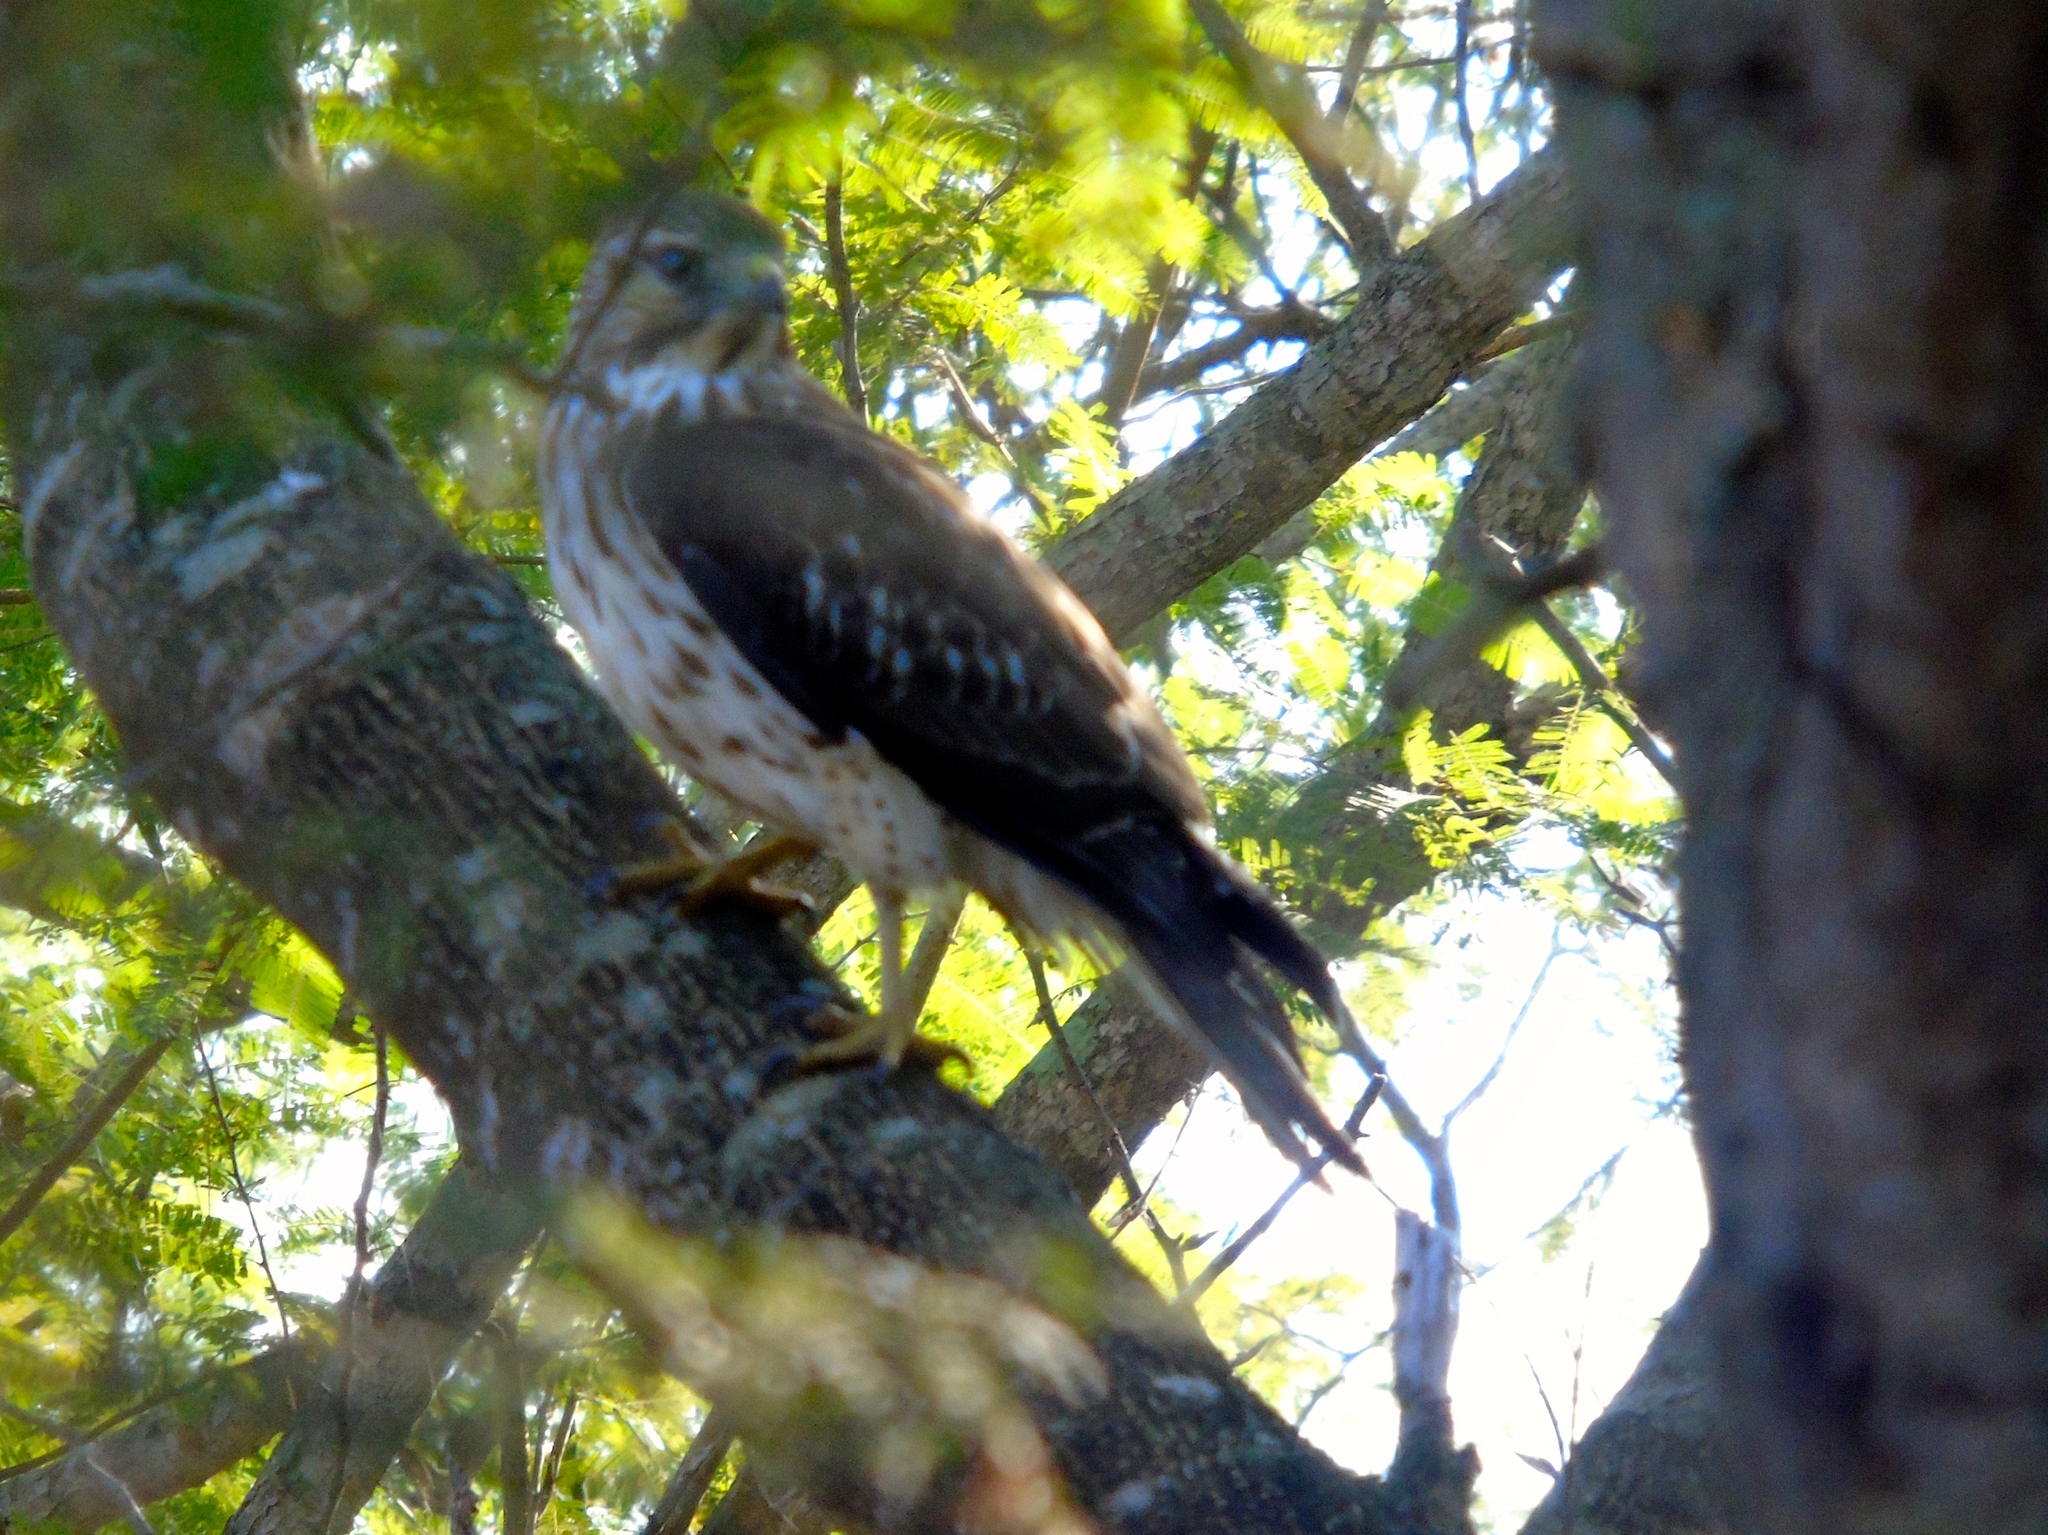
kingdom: Animalia
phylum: Chordata
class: Aves
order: Accipitriformes
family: Accipitridae
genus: Buteo
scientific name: Buteo platypterus
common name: Broad-winged hawk
